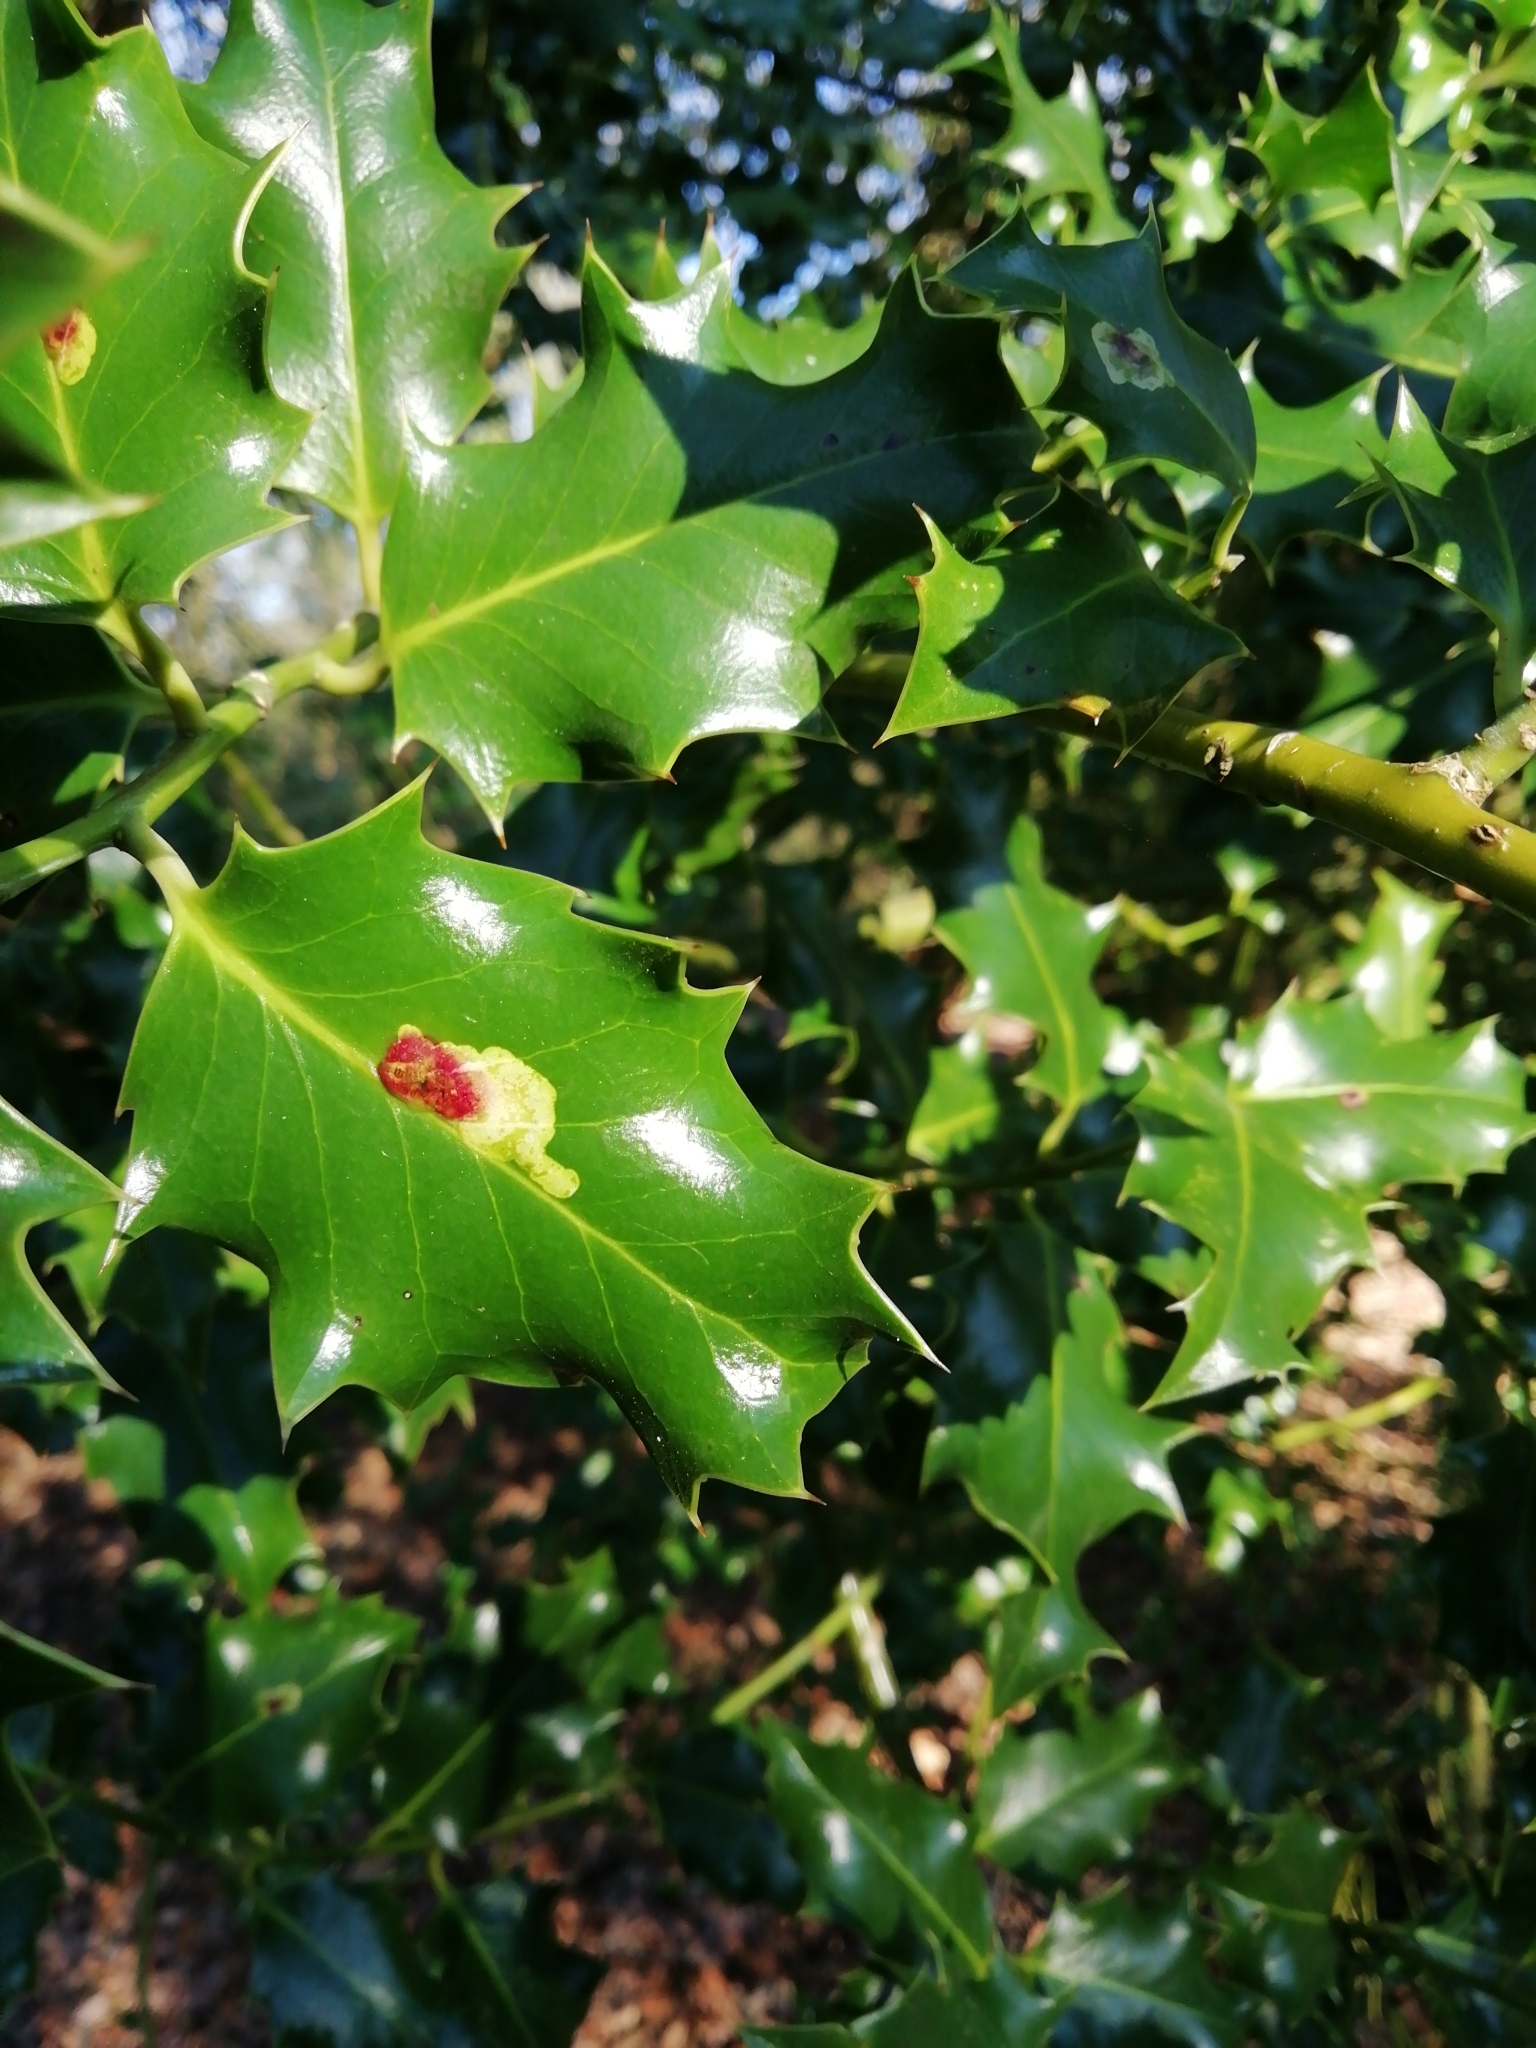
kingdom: Animalia
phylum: Arthropoda
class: Insecta
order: Diptera
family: Agromyzidae
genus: Phytomyza
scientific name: Phytomyza ilicis
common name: Holly leafminer
